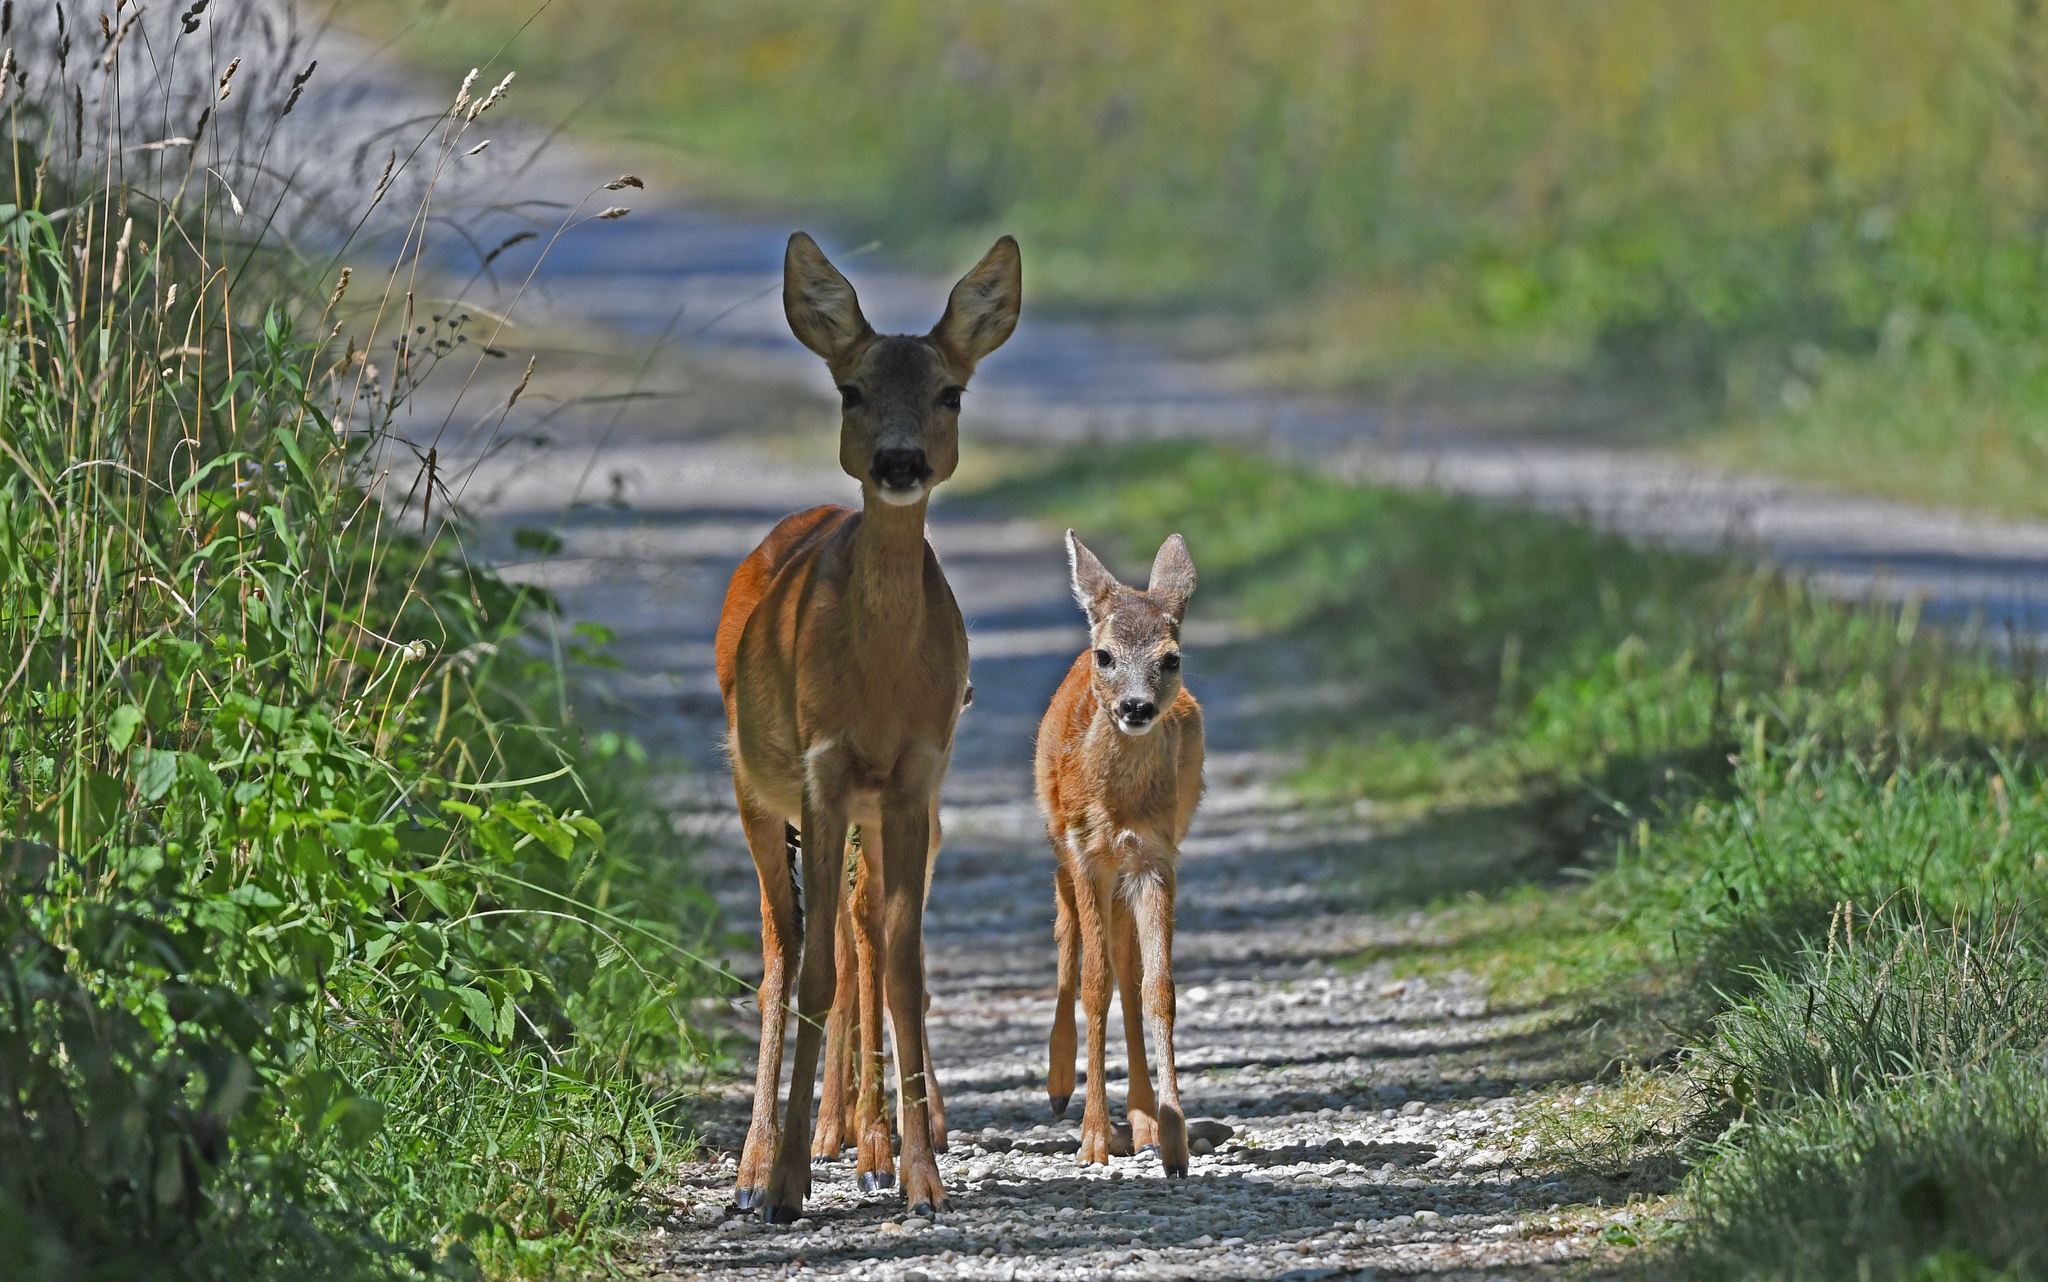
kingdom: Animalia
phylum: Chordata
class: Mammalia
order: Artiodactyla
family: Cervidae
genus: Capreolus
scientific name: Capreolus capreolus
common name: Western roe deer
